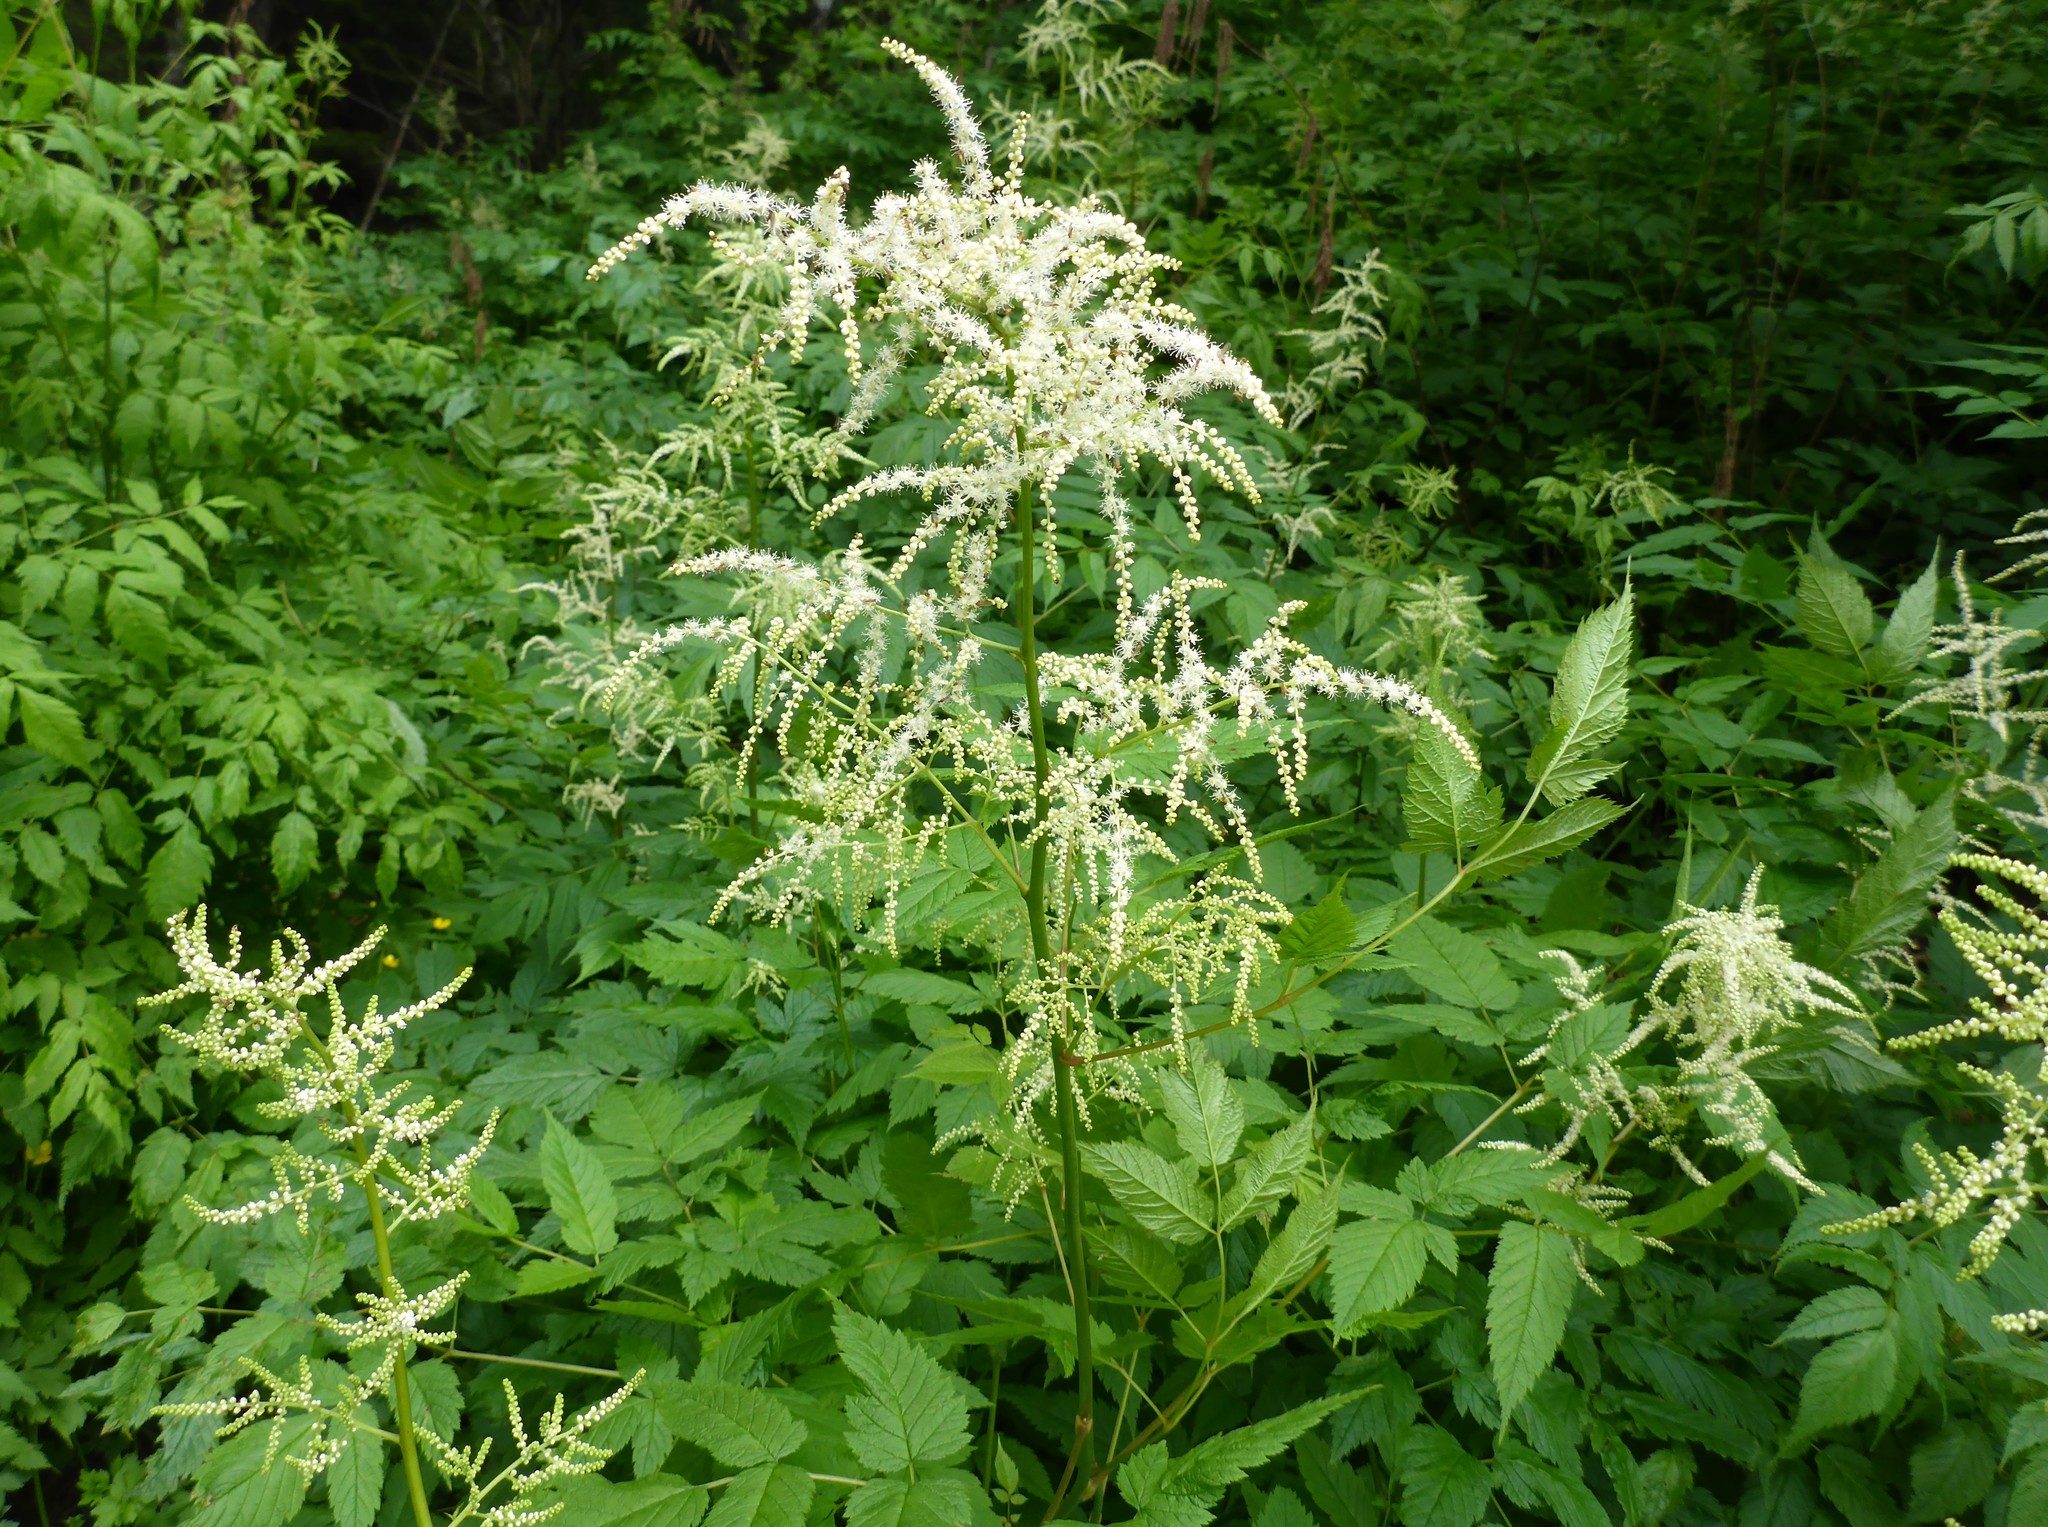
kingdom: Plantae
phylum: Tracheophyta
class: Magnoliopsida
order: Rosales
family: Rosaceae
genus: Aruncus
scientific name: Aruncus dioicus
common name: Buck's-beard
